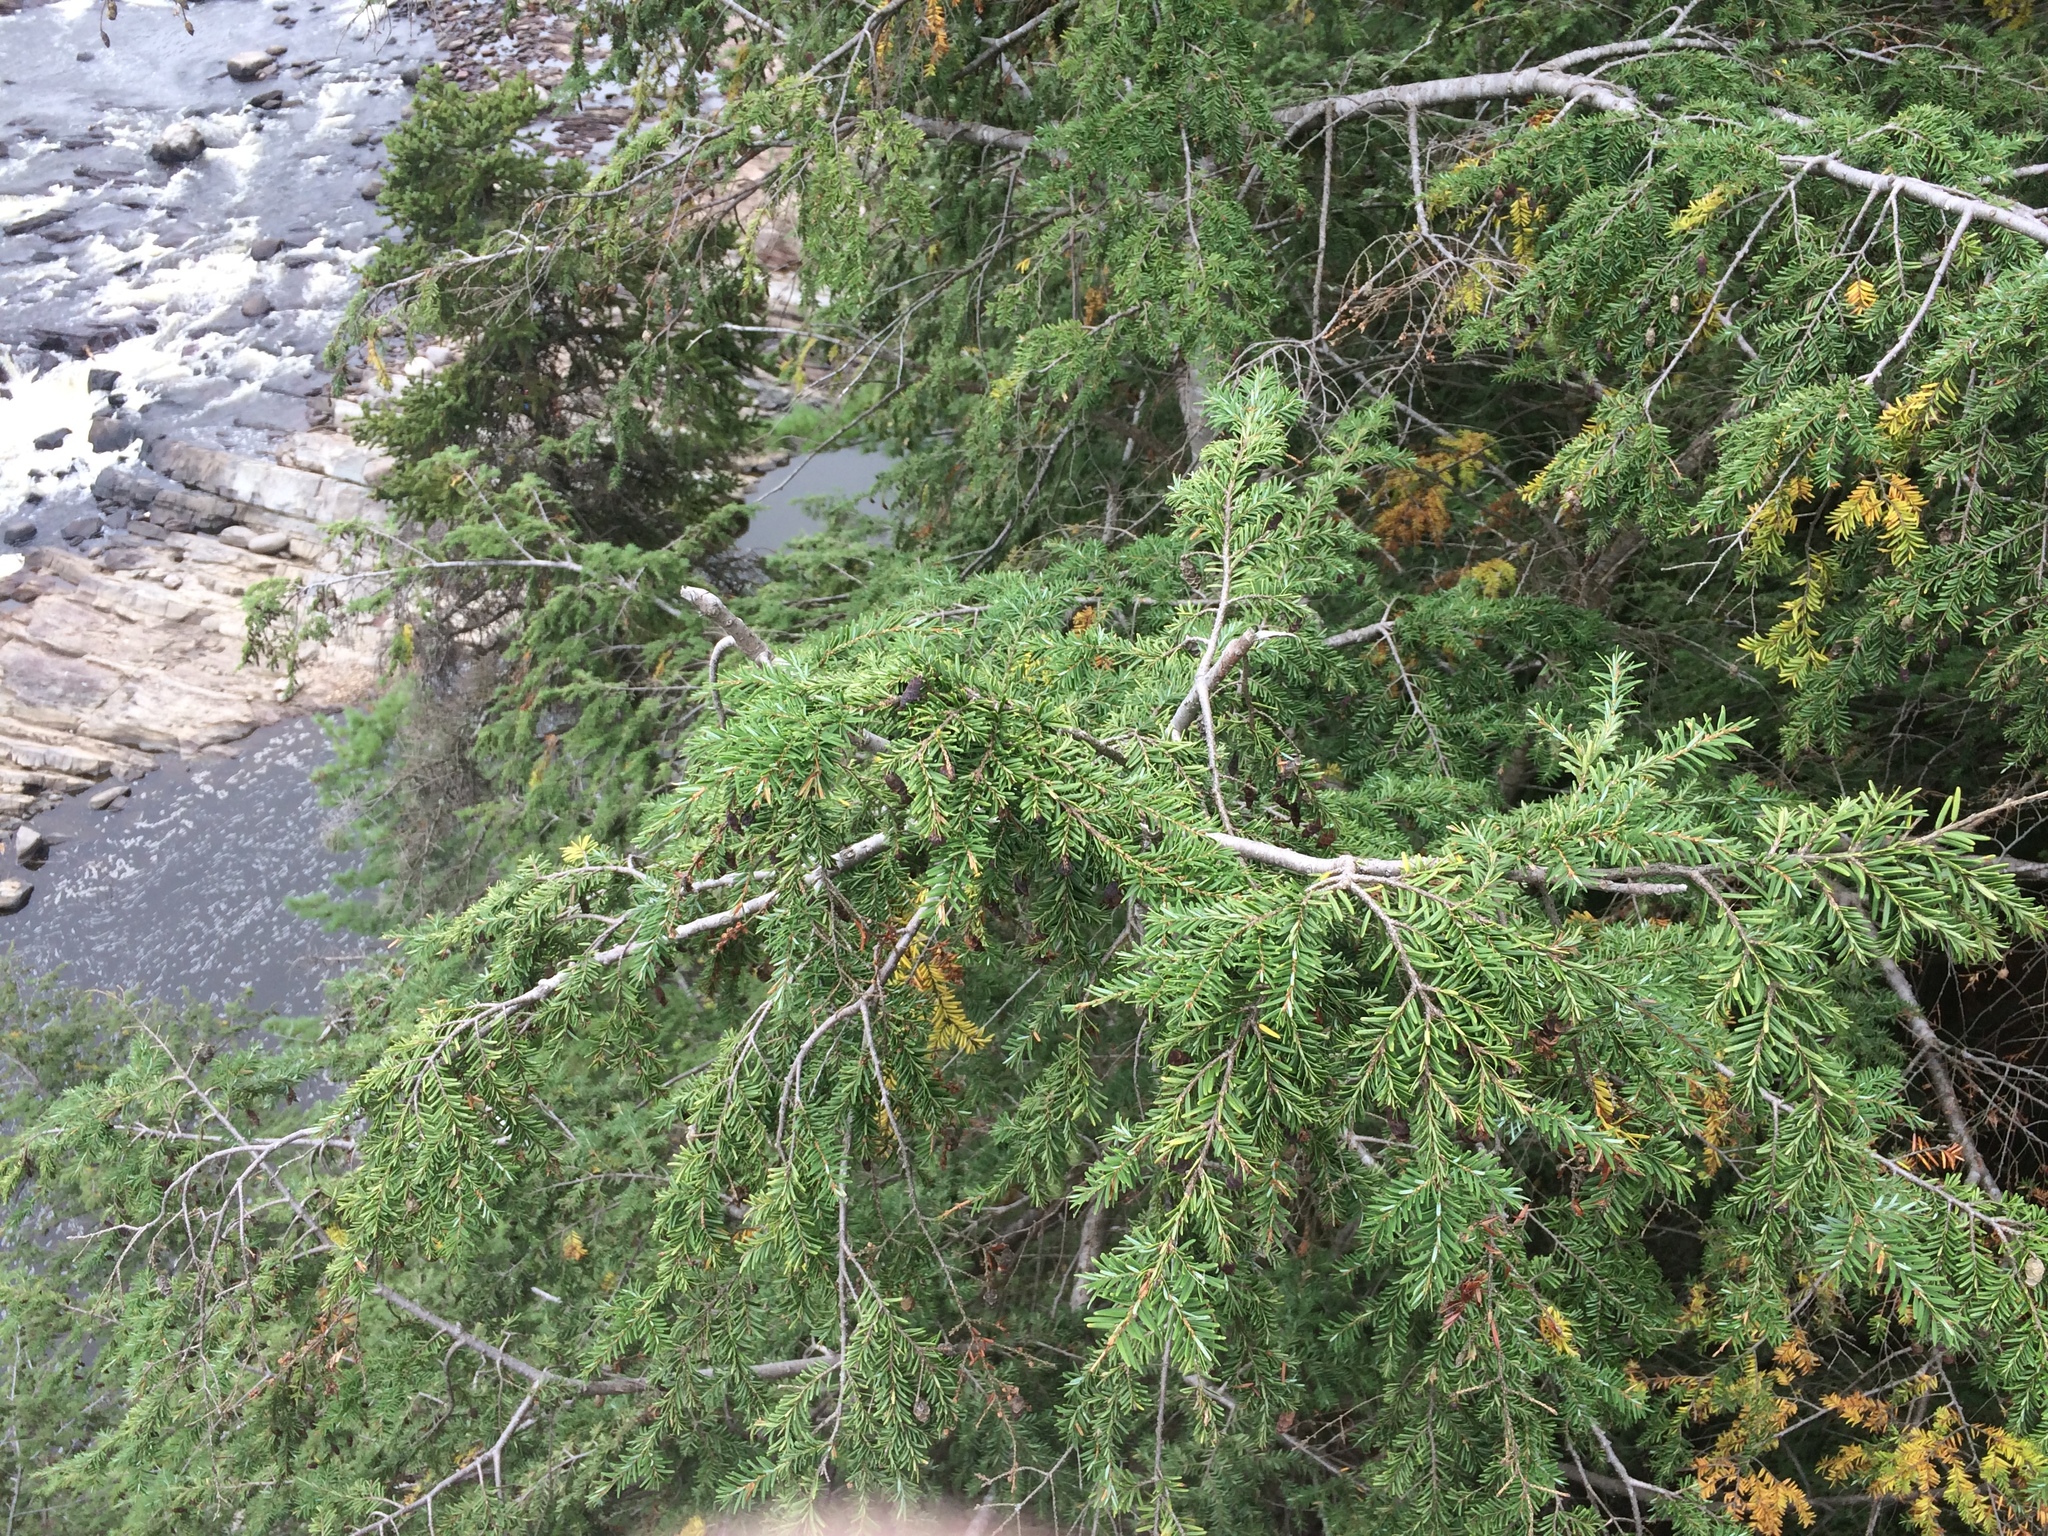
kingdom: Plantae
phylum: Tracheophyta
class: Pinopsida
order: Pinales
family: Pinaceae
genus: Tsuga
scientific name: Tsuga canadensis
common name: Eastern hemlock
